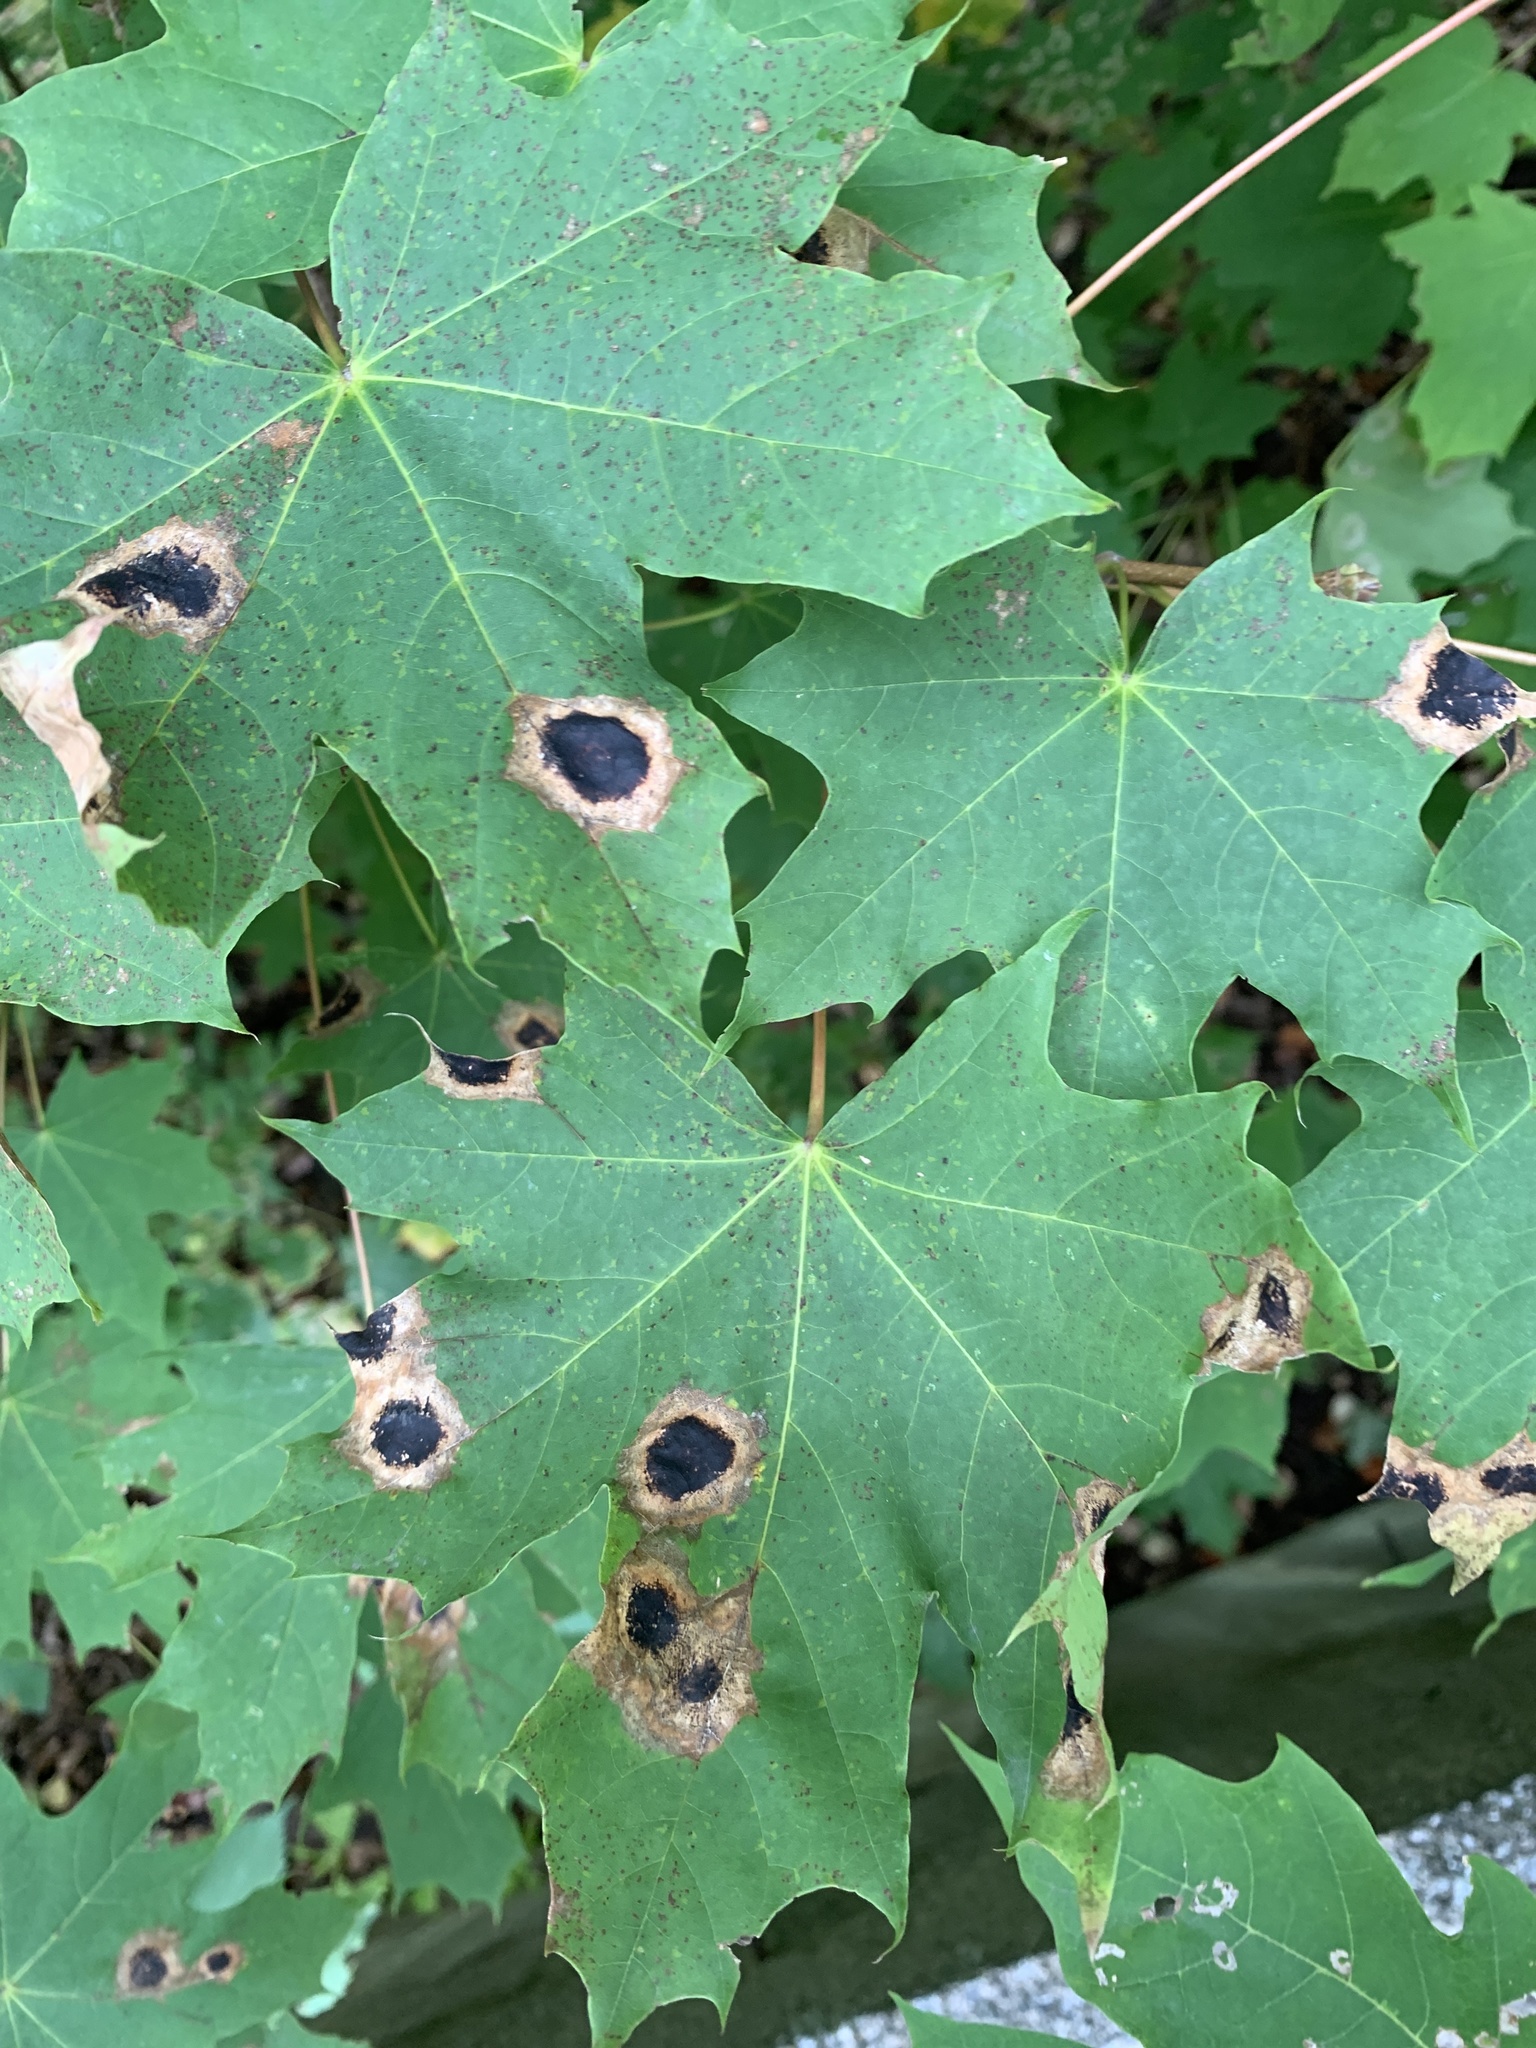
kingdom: Fungi
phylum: Ascomycota
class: Leotiomycetes
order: Rhytismatales
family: Rhytismataceae
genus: Rhytisma
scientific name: Rhytisma acerinum
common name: European tar spot
